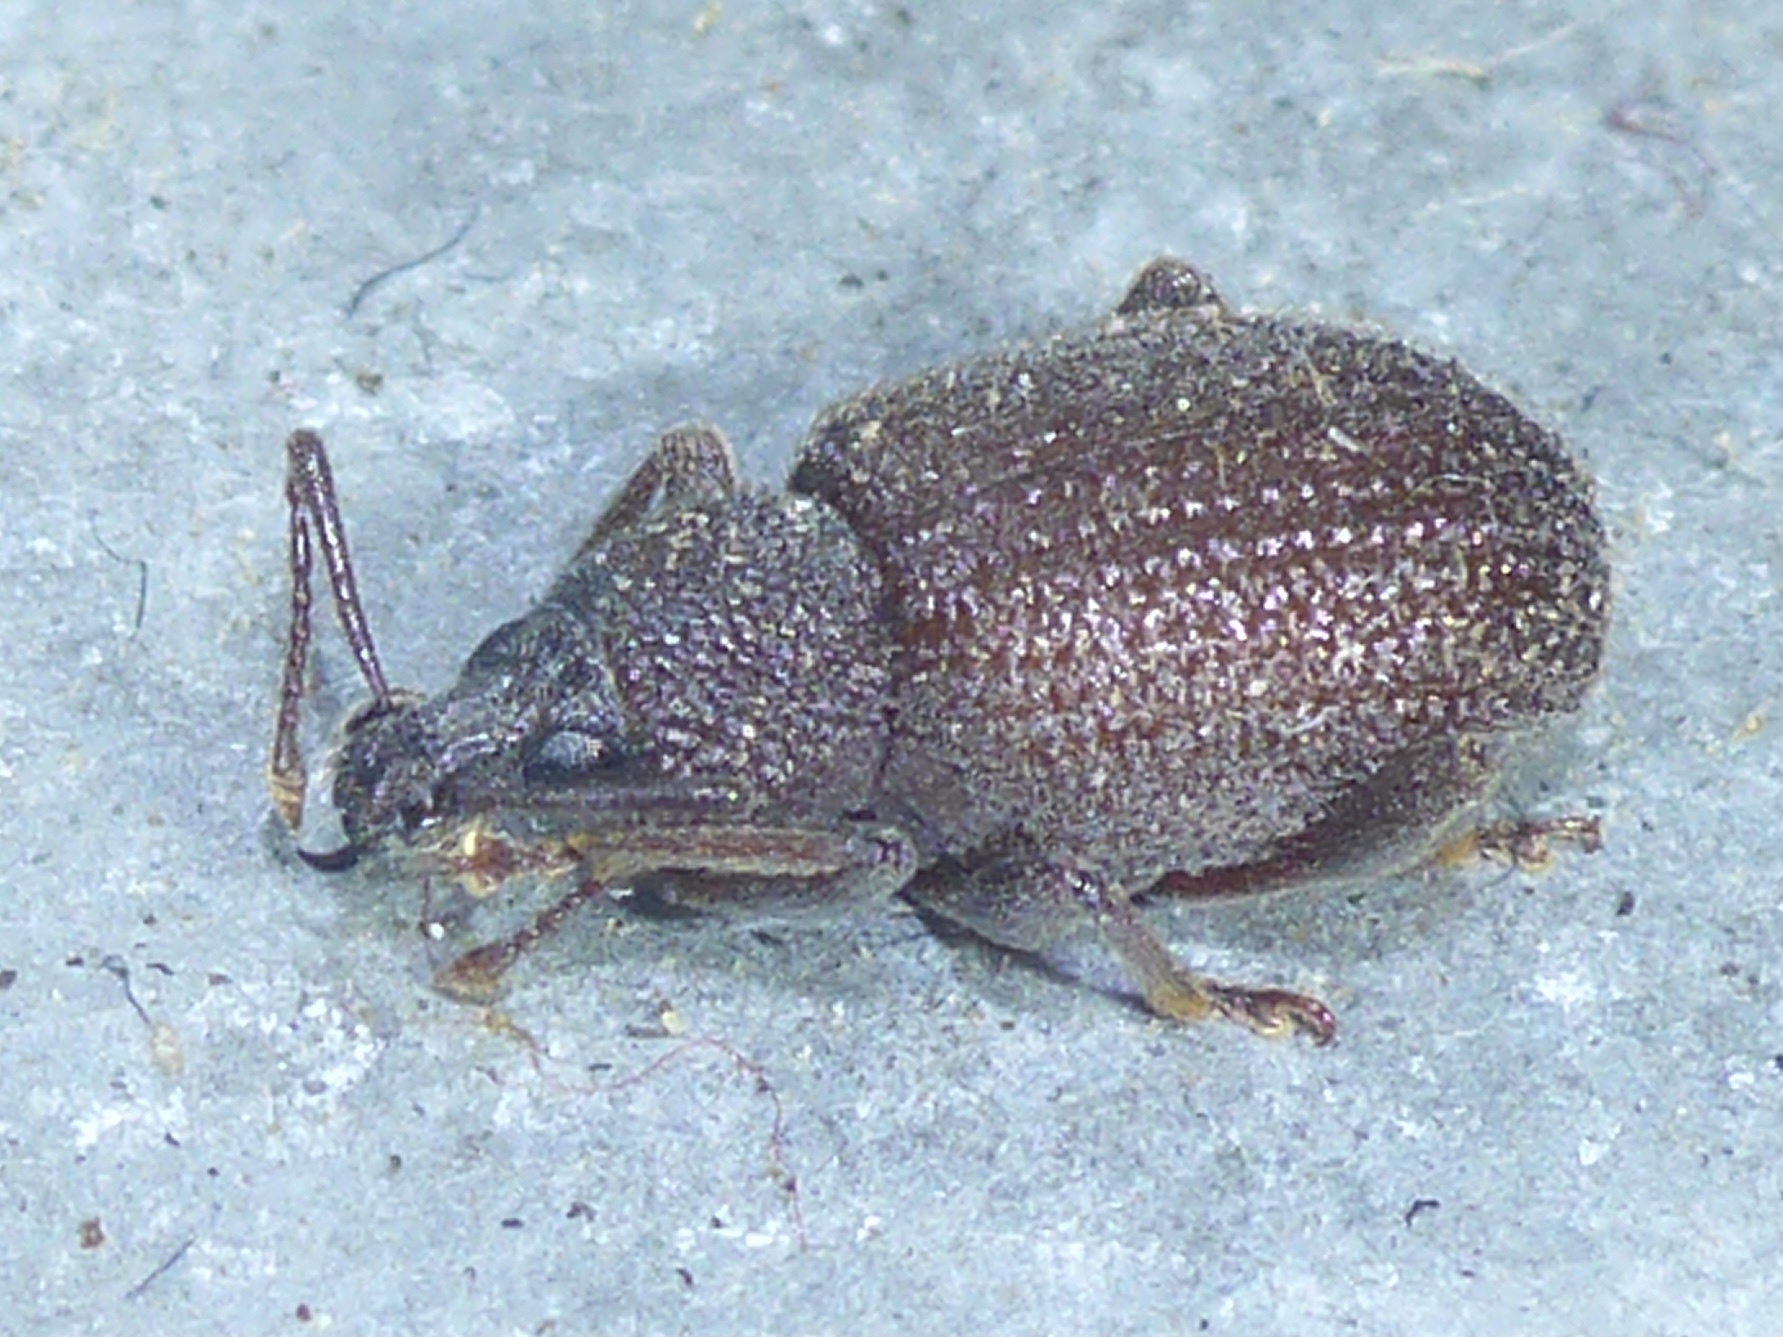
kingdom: Animalia
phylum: Arthropoda
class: Insecta
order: Coleoptera
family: Curculionidae
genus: Otiorhynchus
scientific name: Otiorhynchus rugosostriatus
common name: Weevil
